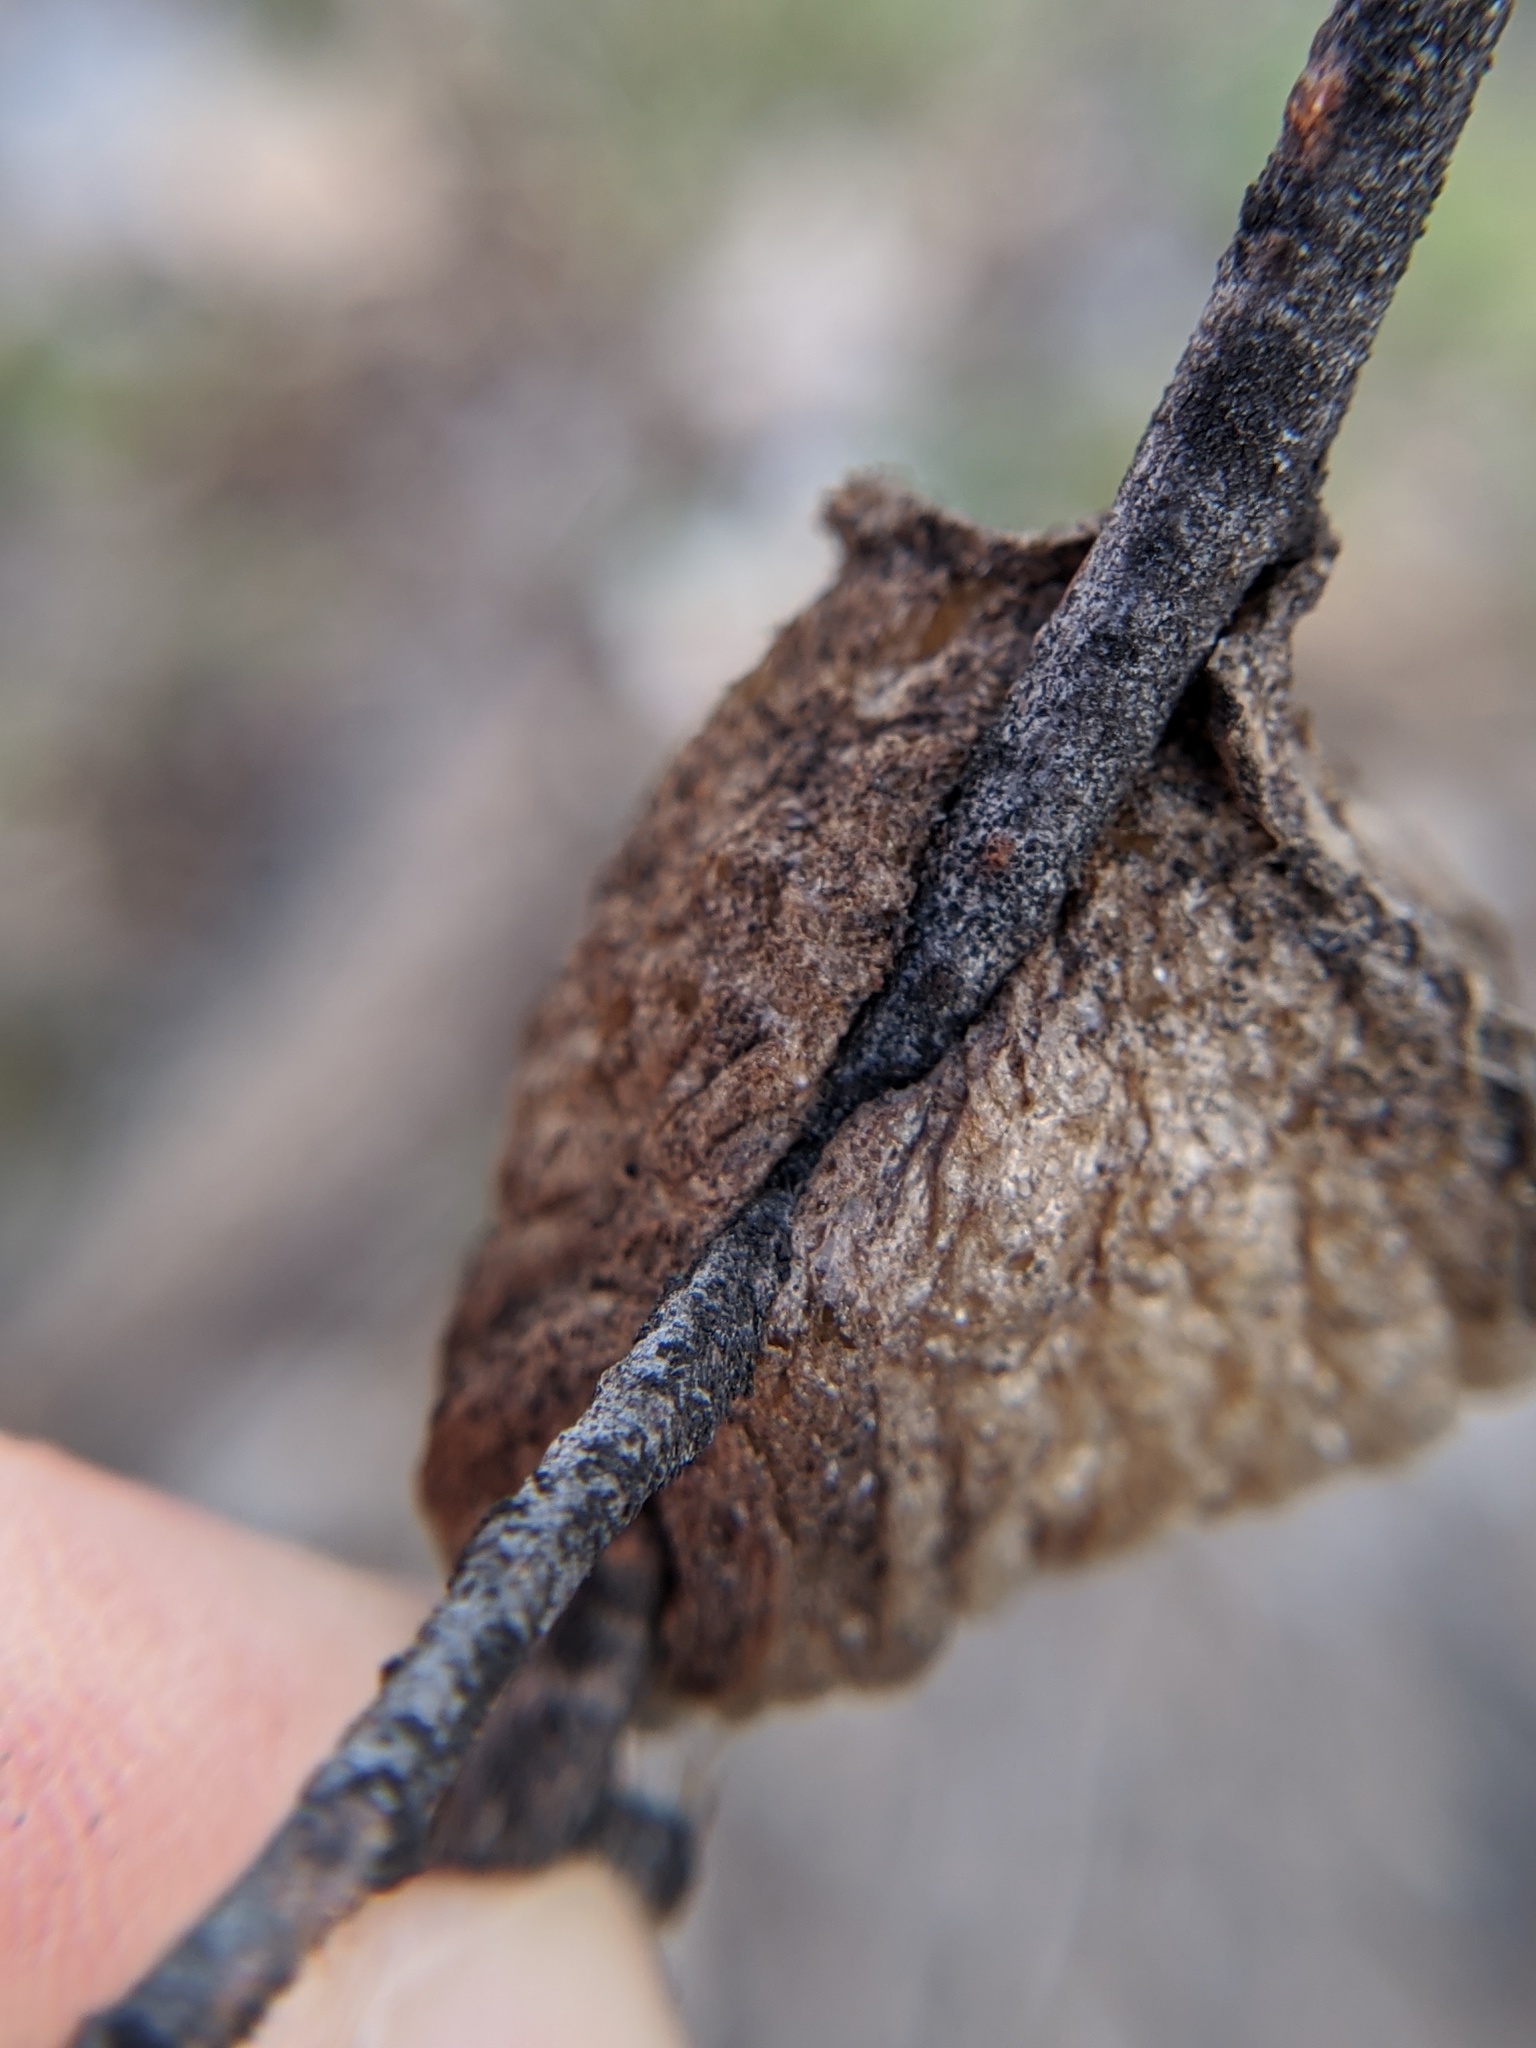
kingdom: Animalia
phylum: Arthropoda
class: Insecta
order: Mantodea
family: Mantidae
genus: Tenodera
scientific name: Tenodera sinensis
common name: Chinese mantis
